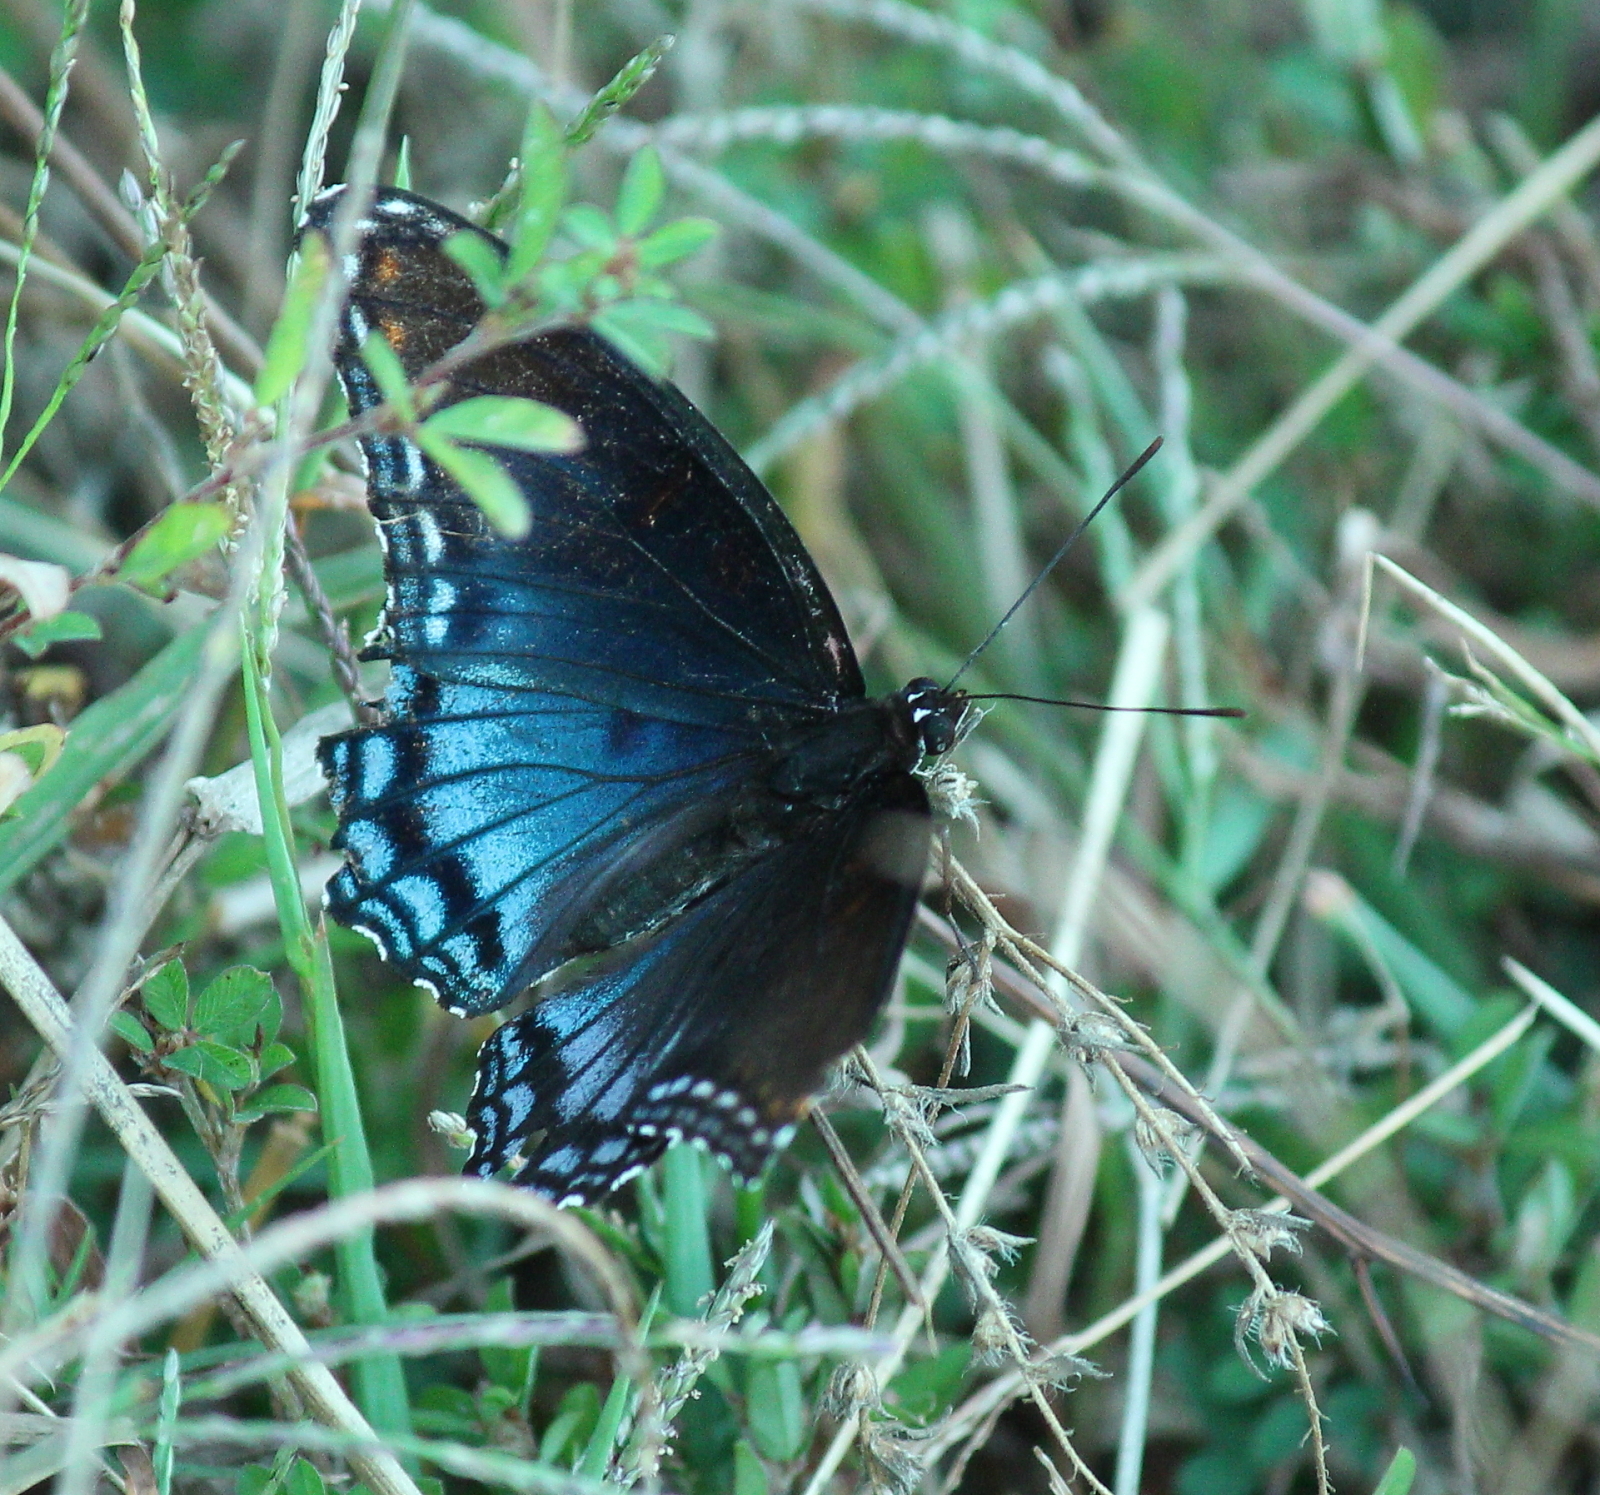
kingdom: Animalia
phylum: Arthropoda
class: Insecta
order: Lepidoptera
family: Nymphalidae
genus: Limenitis
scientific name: Limenitis astyanax
